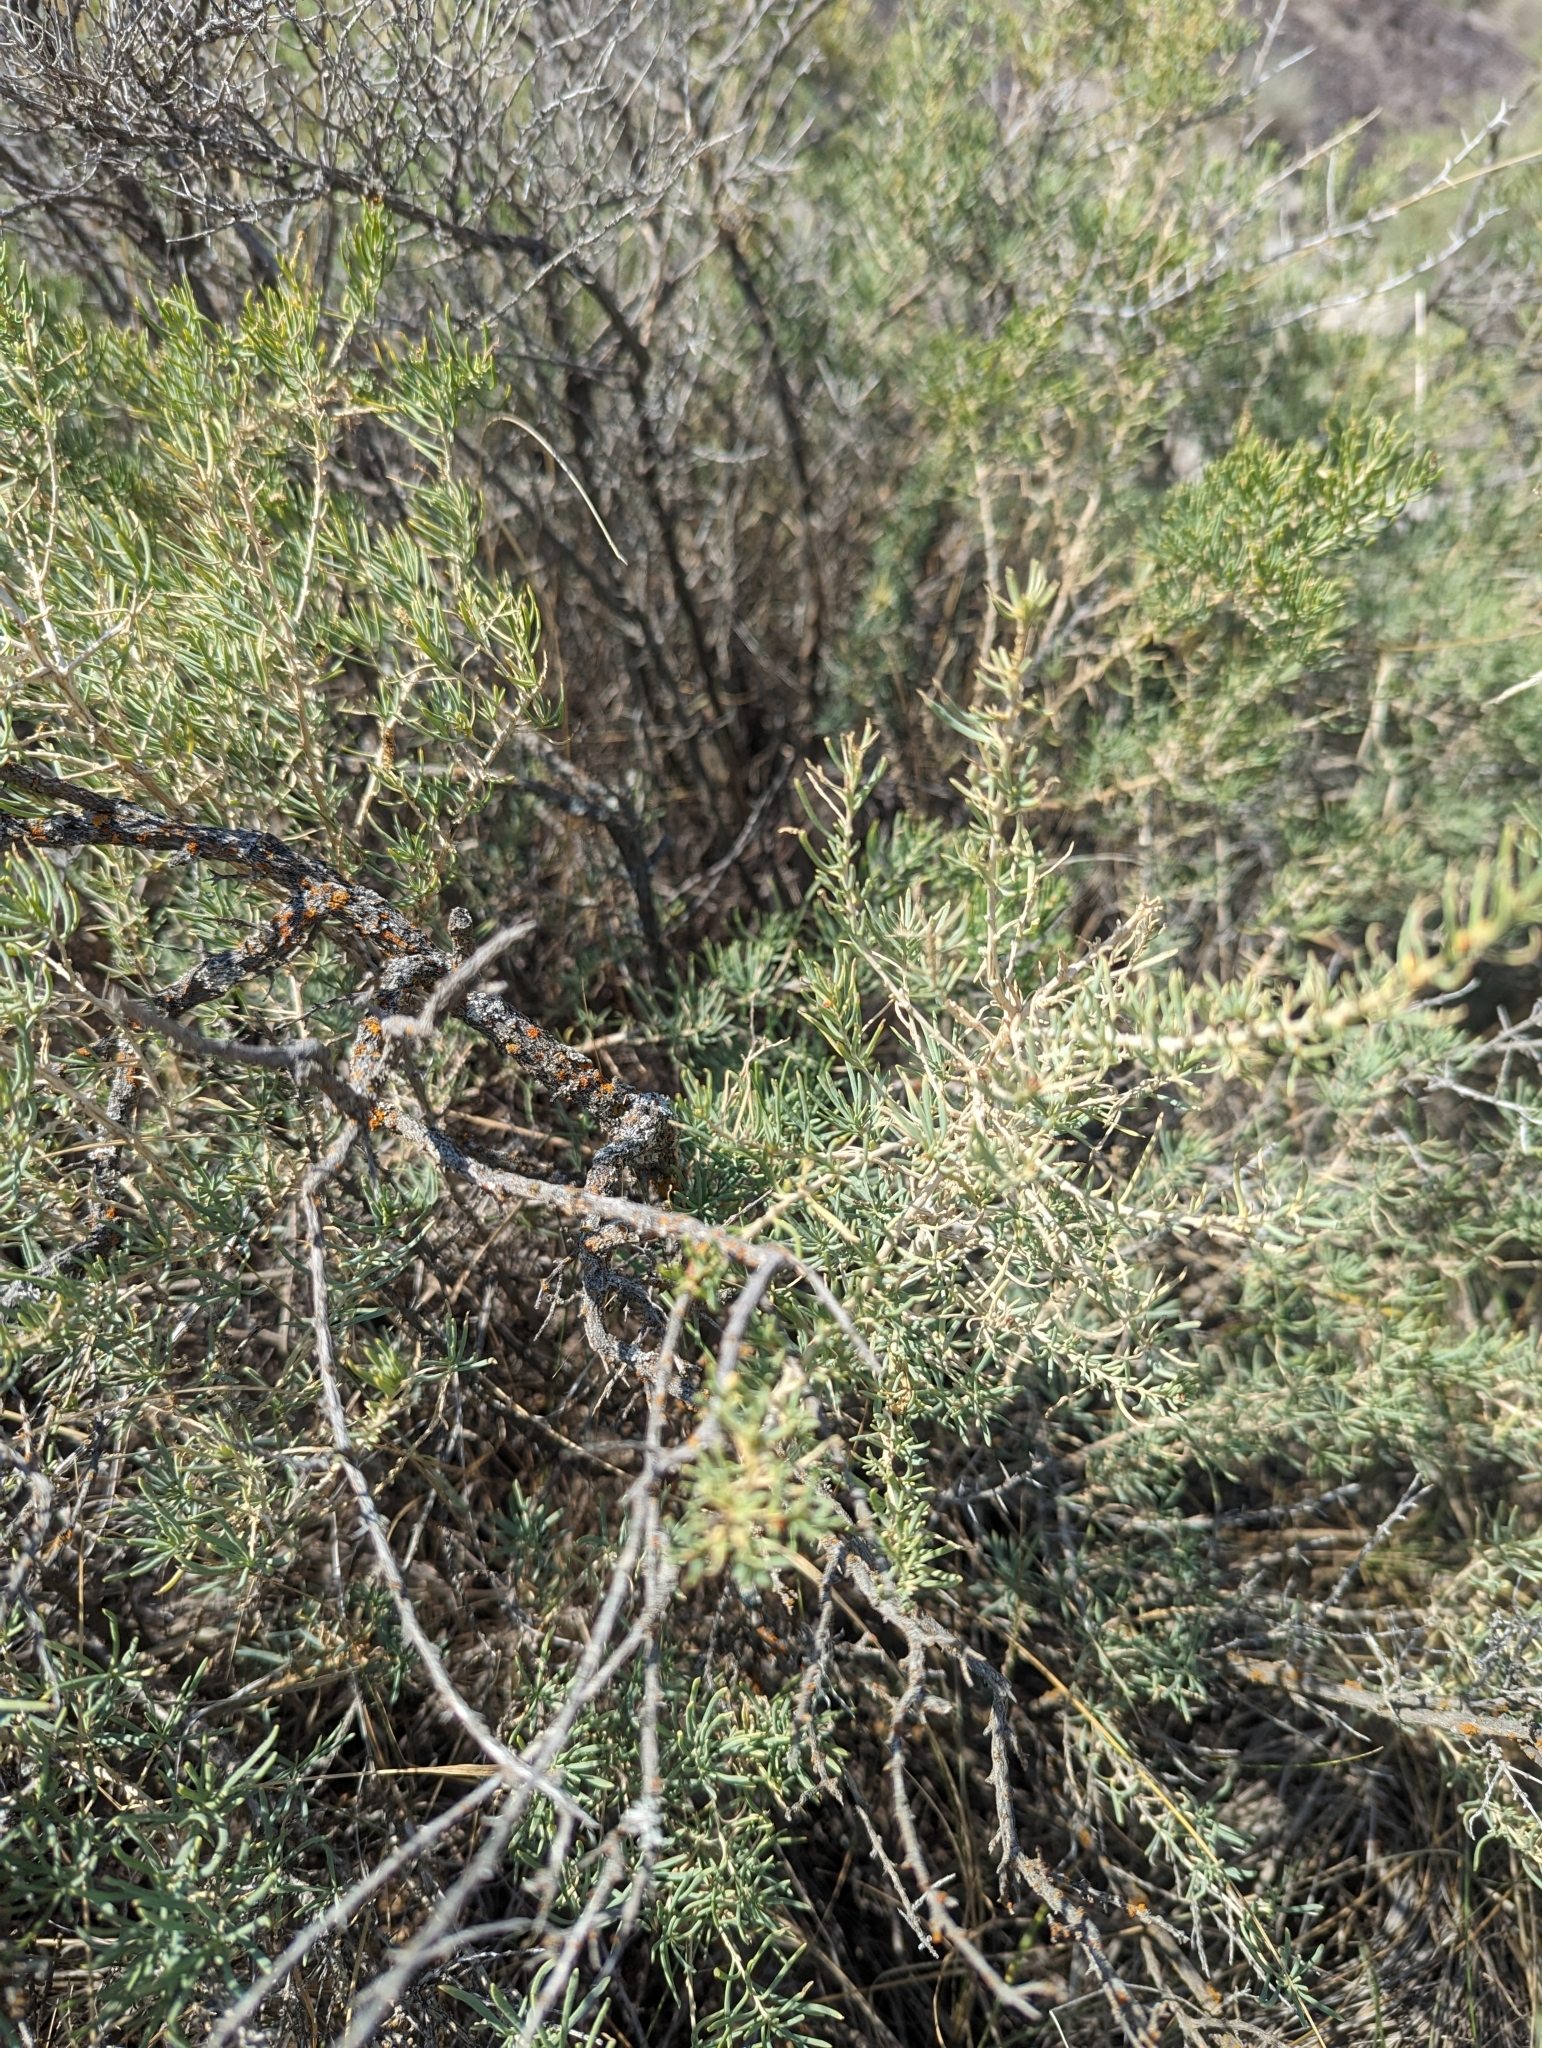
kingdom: Plantae
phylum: Tracheophyta
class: Magnoliopsida
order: Caryophyllales
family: Sarcobataceae
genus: Sarcobatus
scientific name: Sarcobatus vermiculatus
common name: Greasewood
